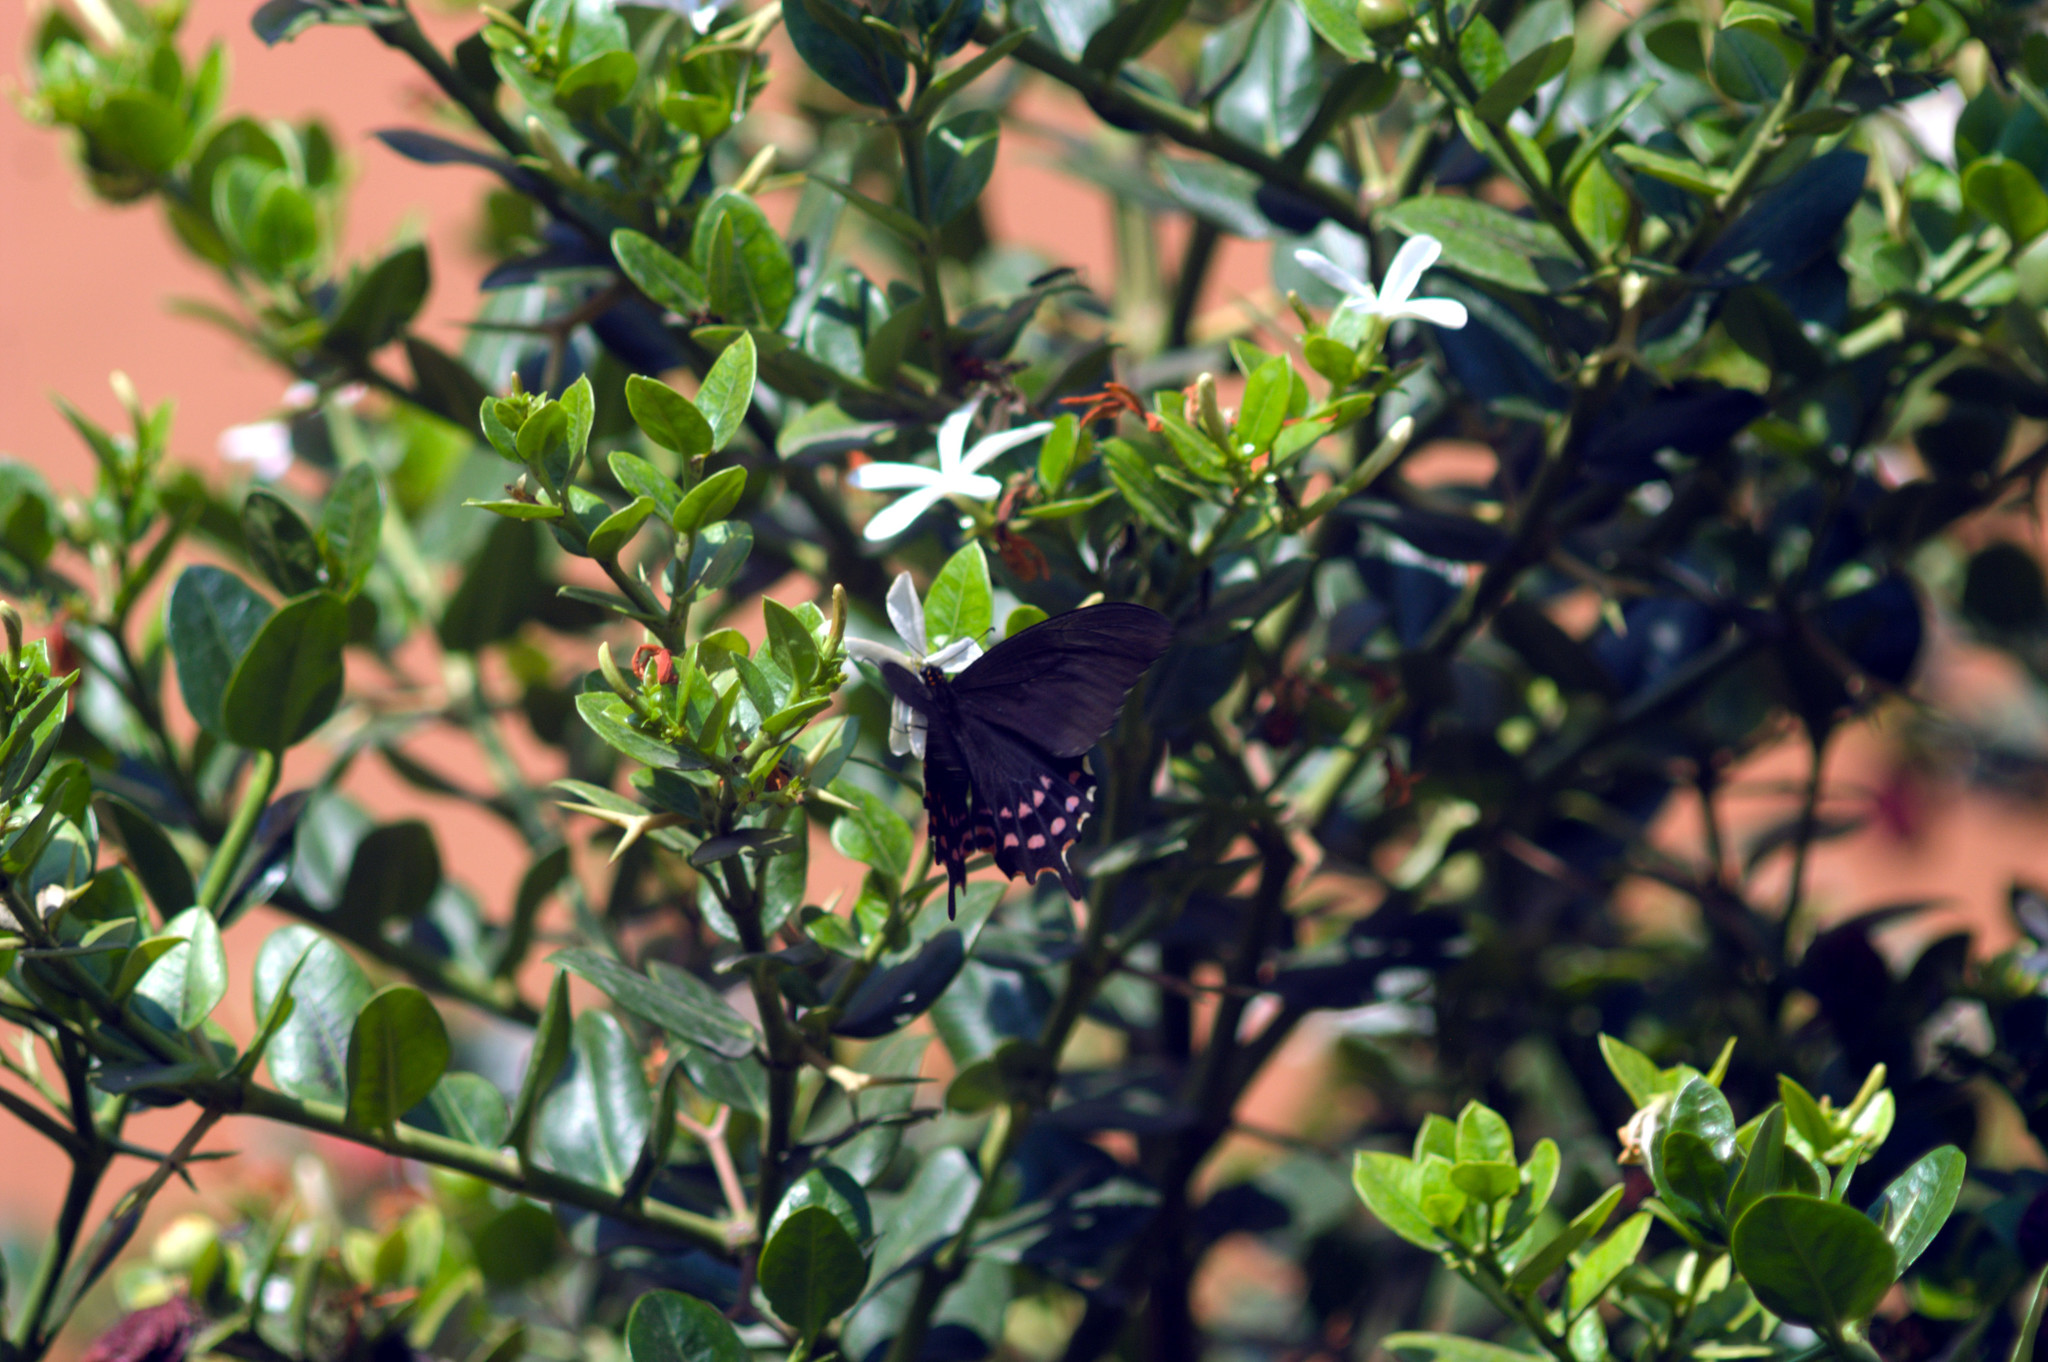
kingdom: Animalia
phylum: Arthropoda
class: Insecta
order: Lepidoptera
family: Papilionidae
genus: Heraclides
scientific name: Heraclides rogeri
